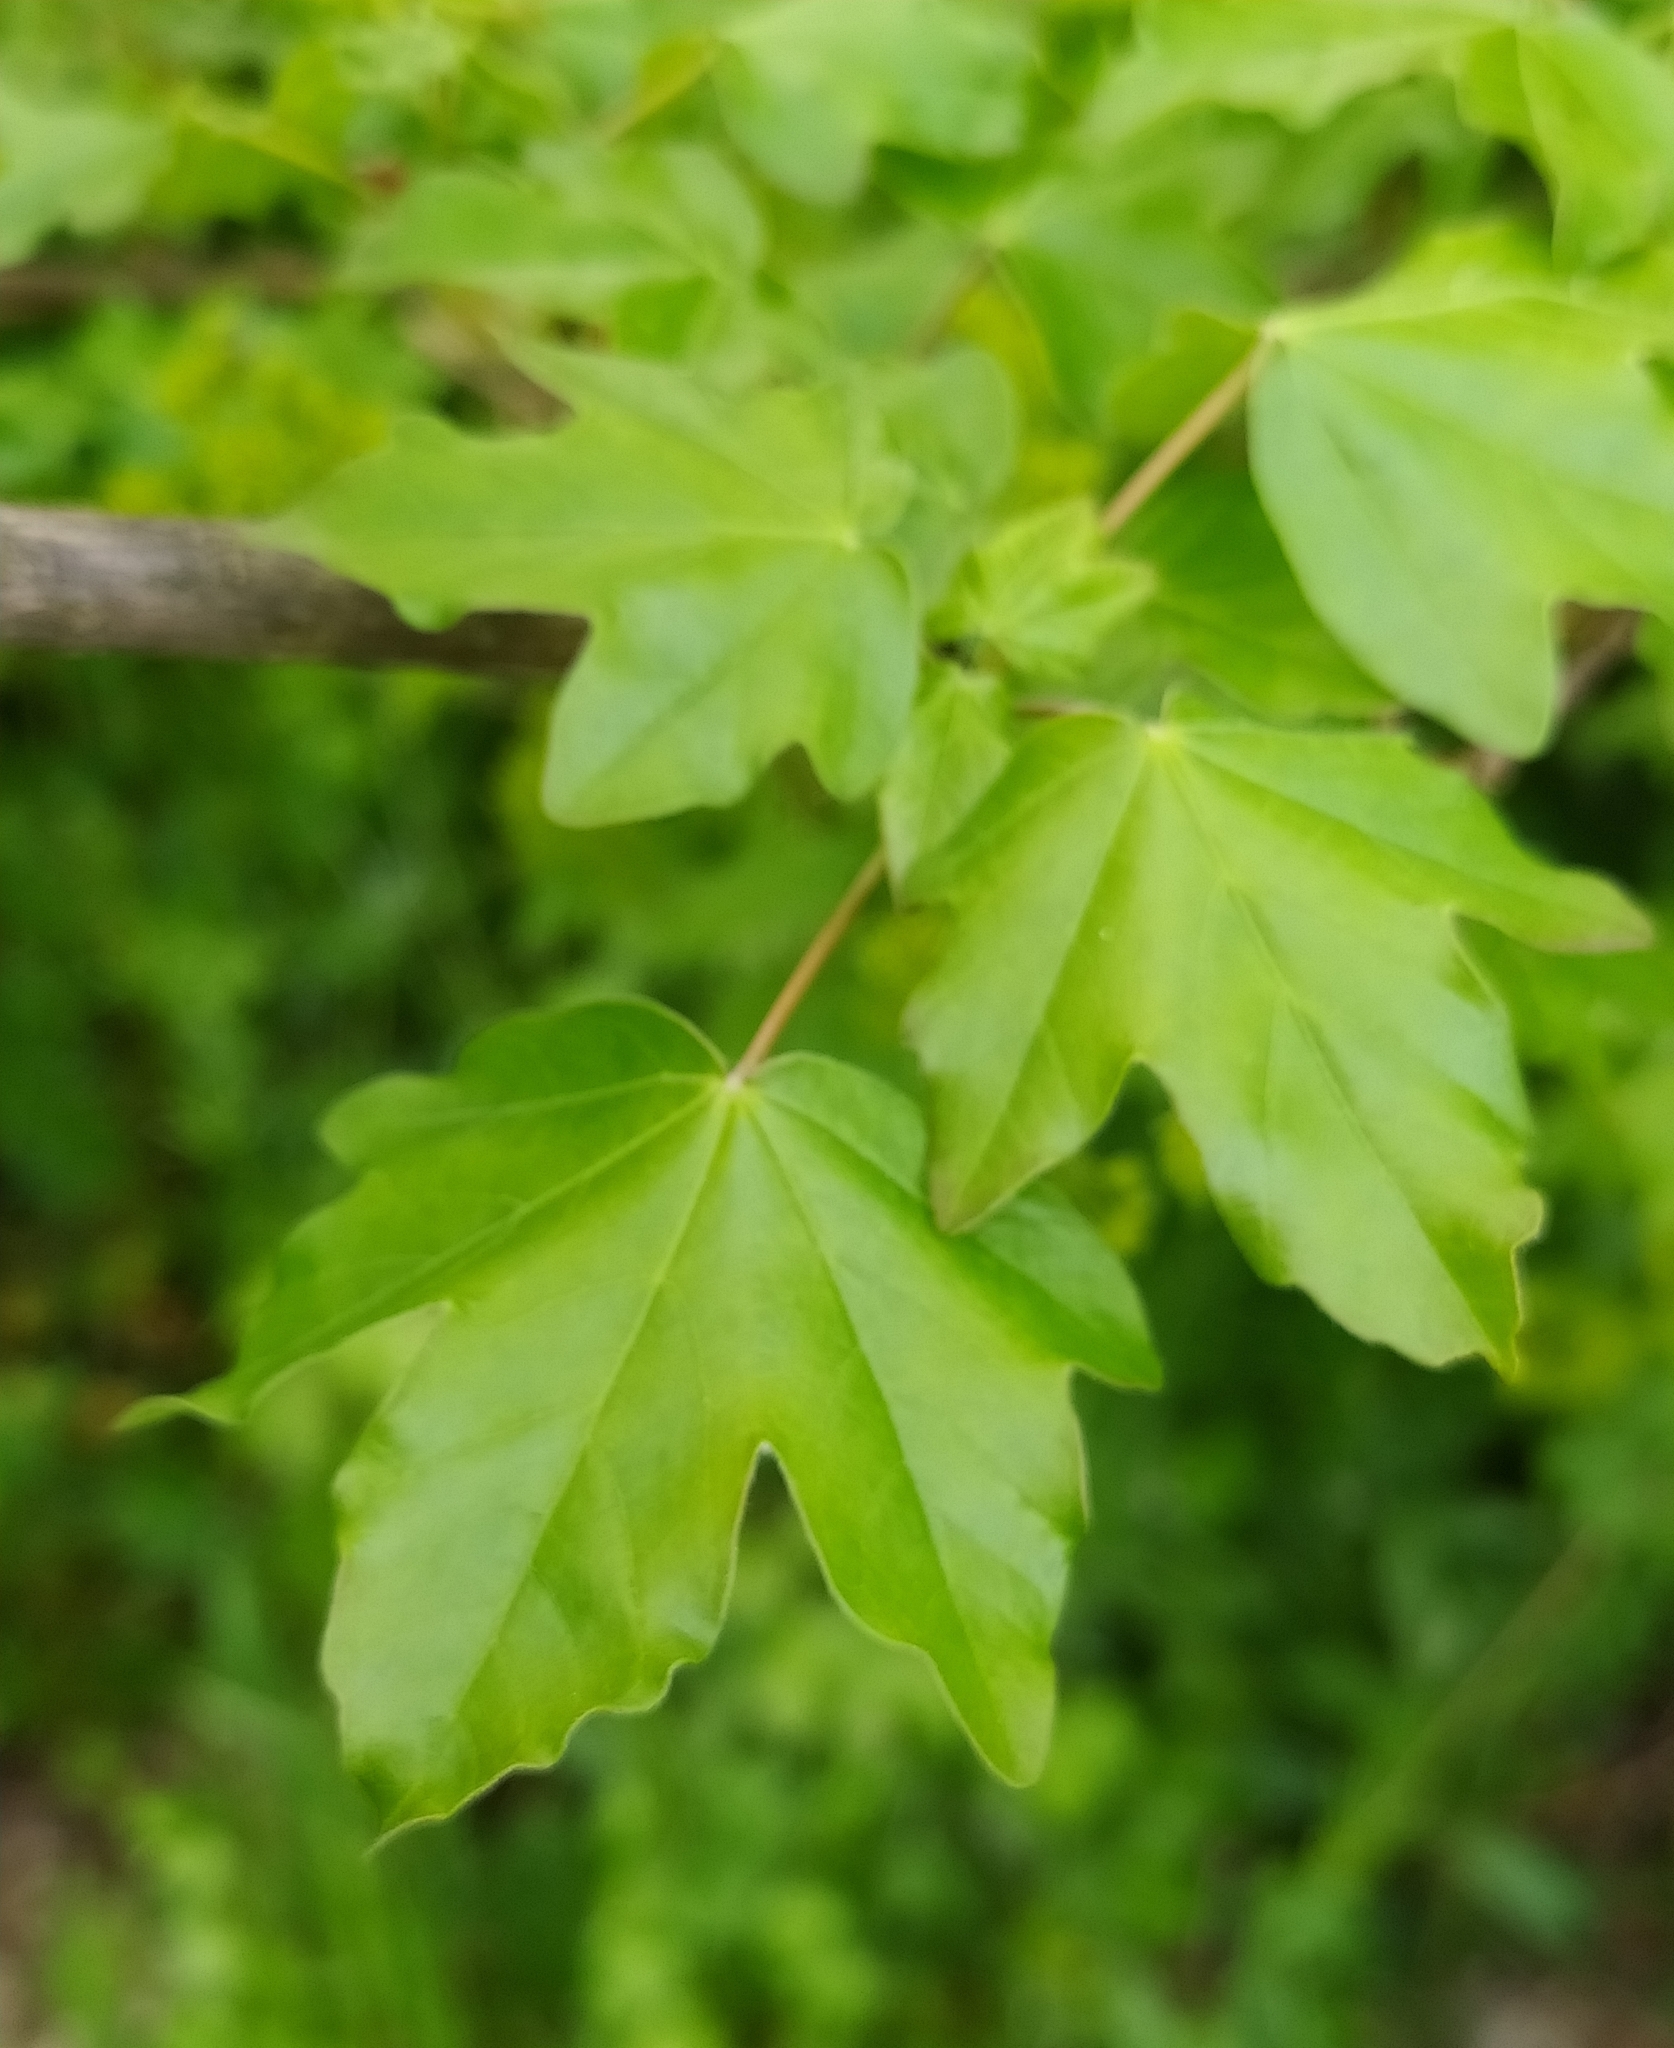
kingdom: Plantae
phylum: Tracheophyta
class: Magnoliopsida
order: Sapindales
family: Sapindaceae
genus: Acer
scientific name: Acer campestre
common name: Field maple
